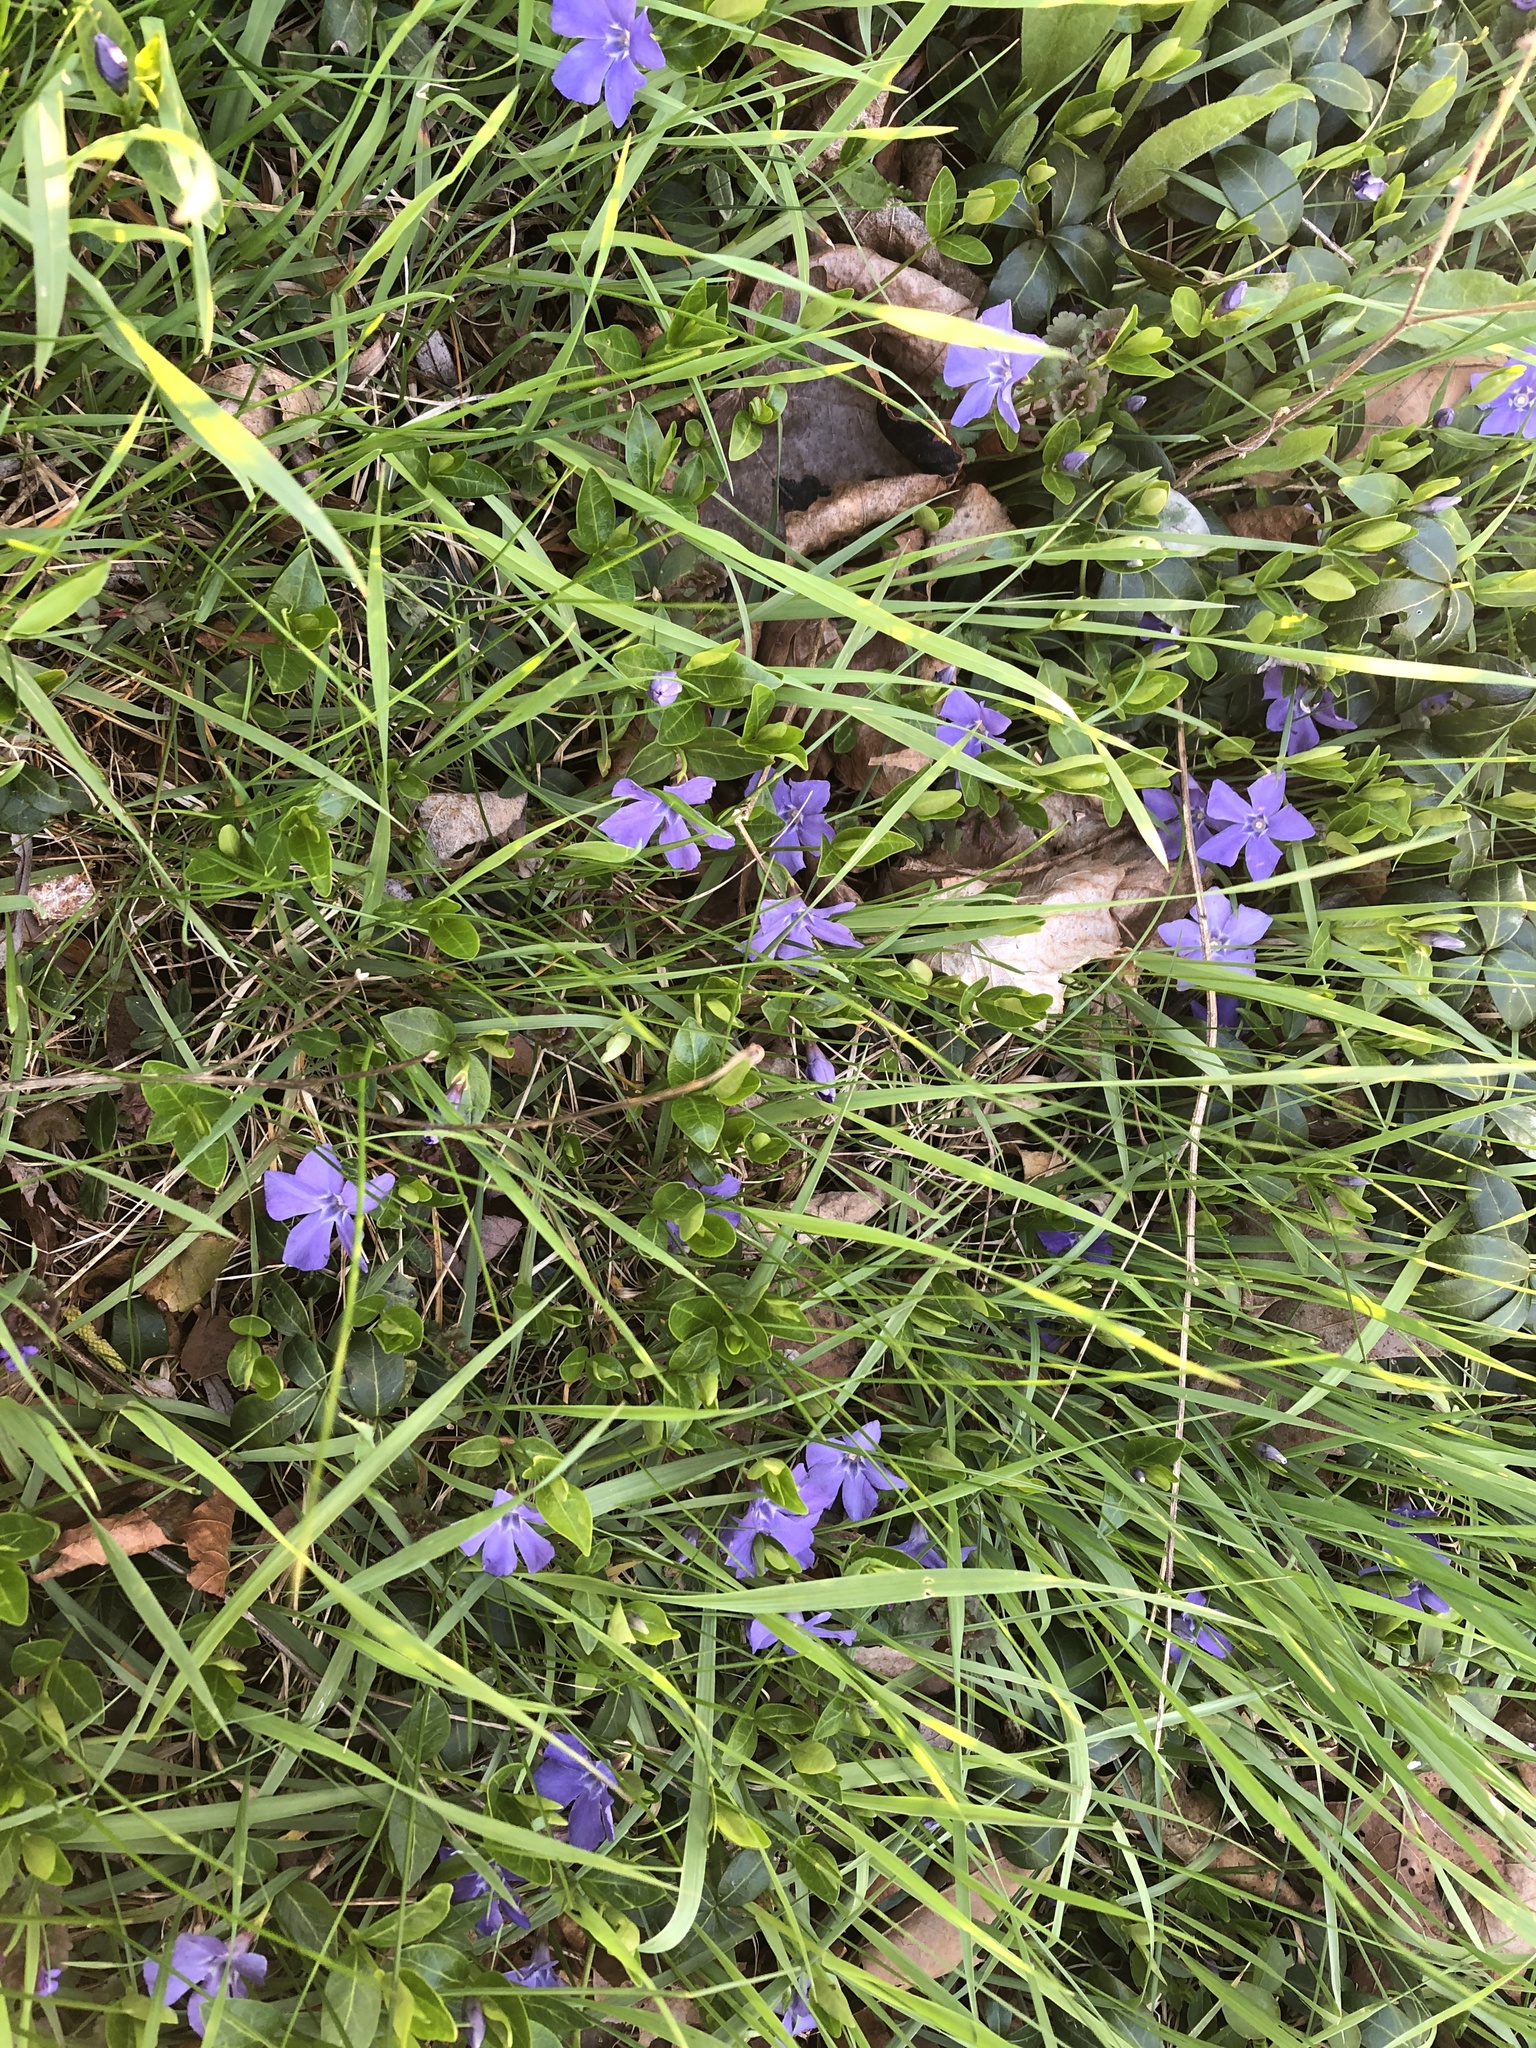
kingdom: Plantae
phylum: Tracheophyta
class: Magnoliopsida
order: Gentianales
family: Apocynaceae
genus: Vinca
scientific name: Vinca minor
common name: Lesser periwinkle
